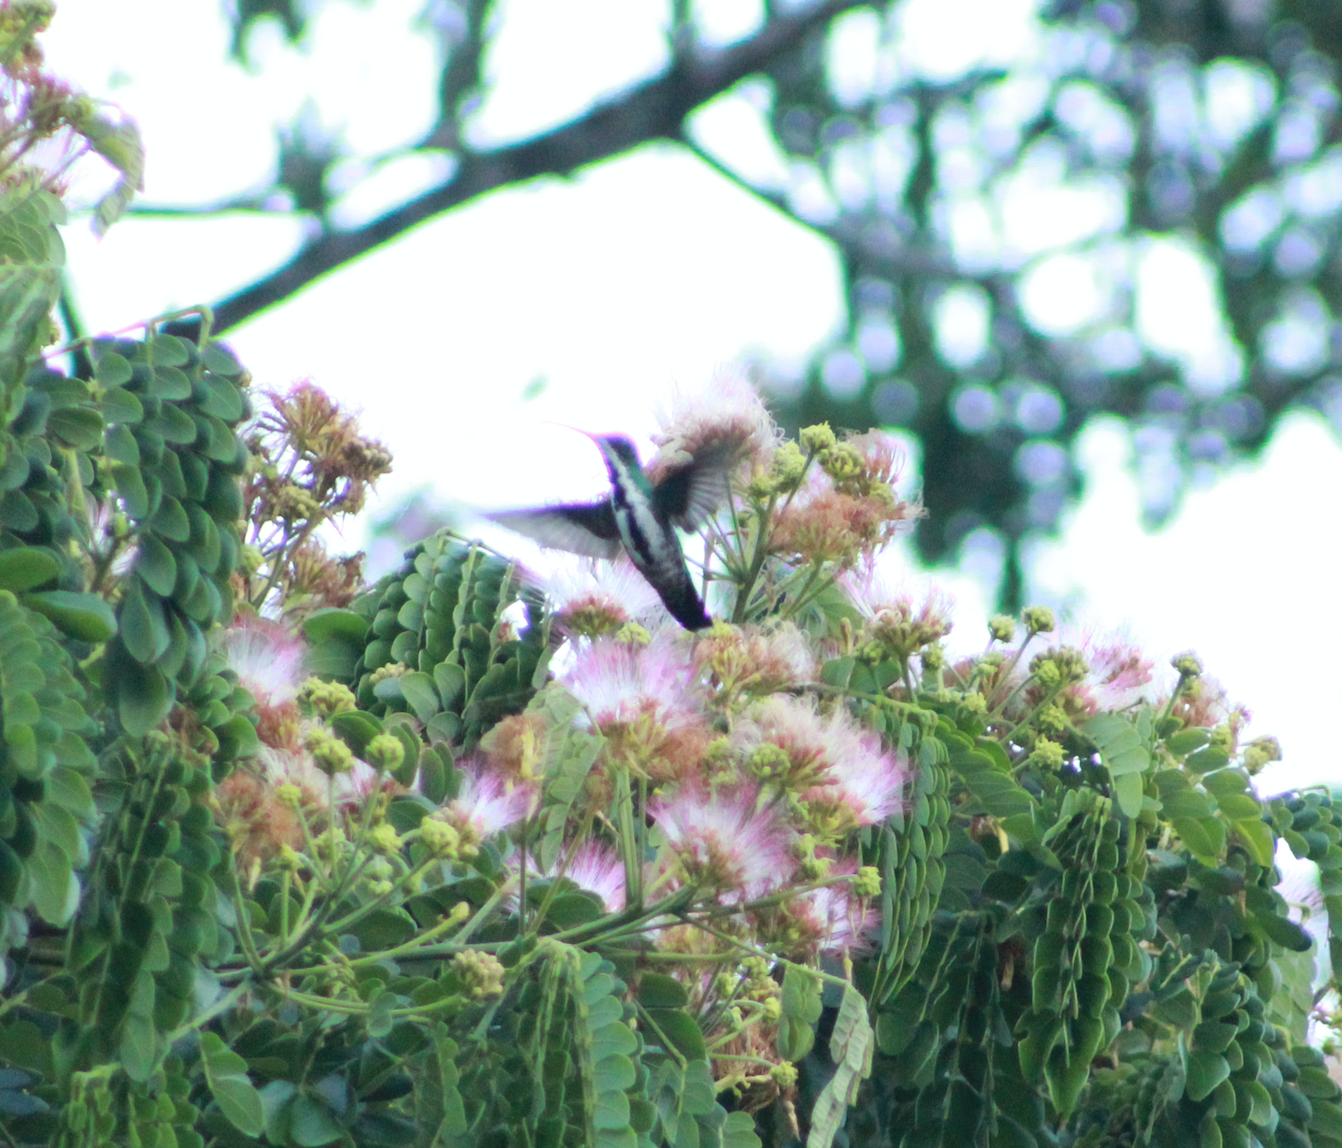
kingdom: Animalia
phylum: Chordata
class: Aves
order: Apodiformes
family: Trochilidae
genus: Anthracothorax
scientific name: Anthracothorax nigricollis
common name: Black-throated mango
